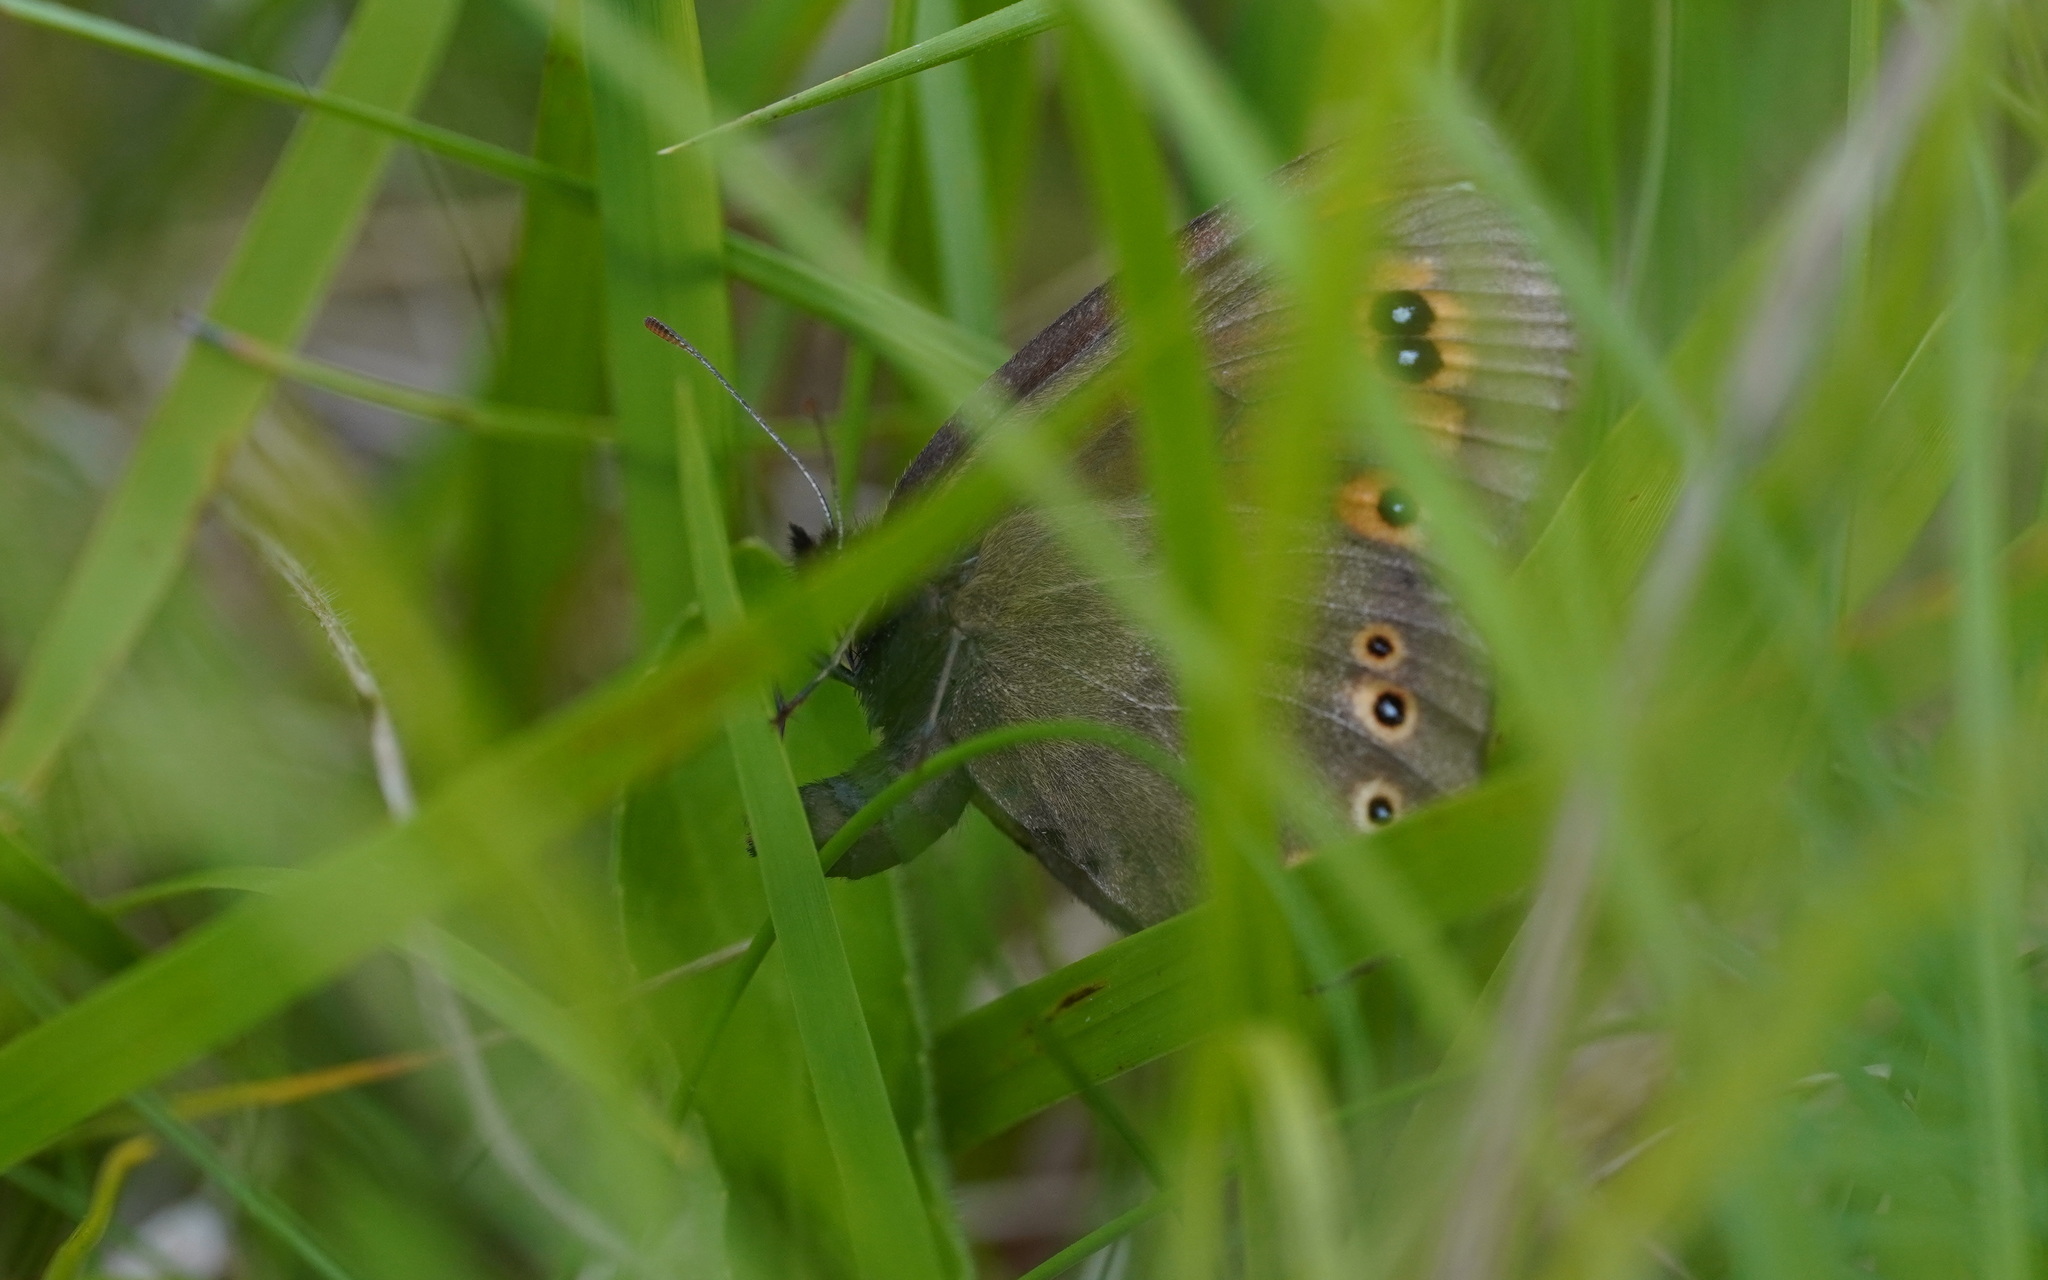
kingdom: Animalia
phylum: Arthropoda
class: Insecta
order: Lepidoptera
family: Nymphalidae
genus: Erebia
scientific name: Erebia medusa
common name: Woodland ringlet
